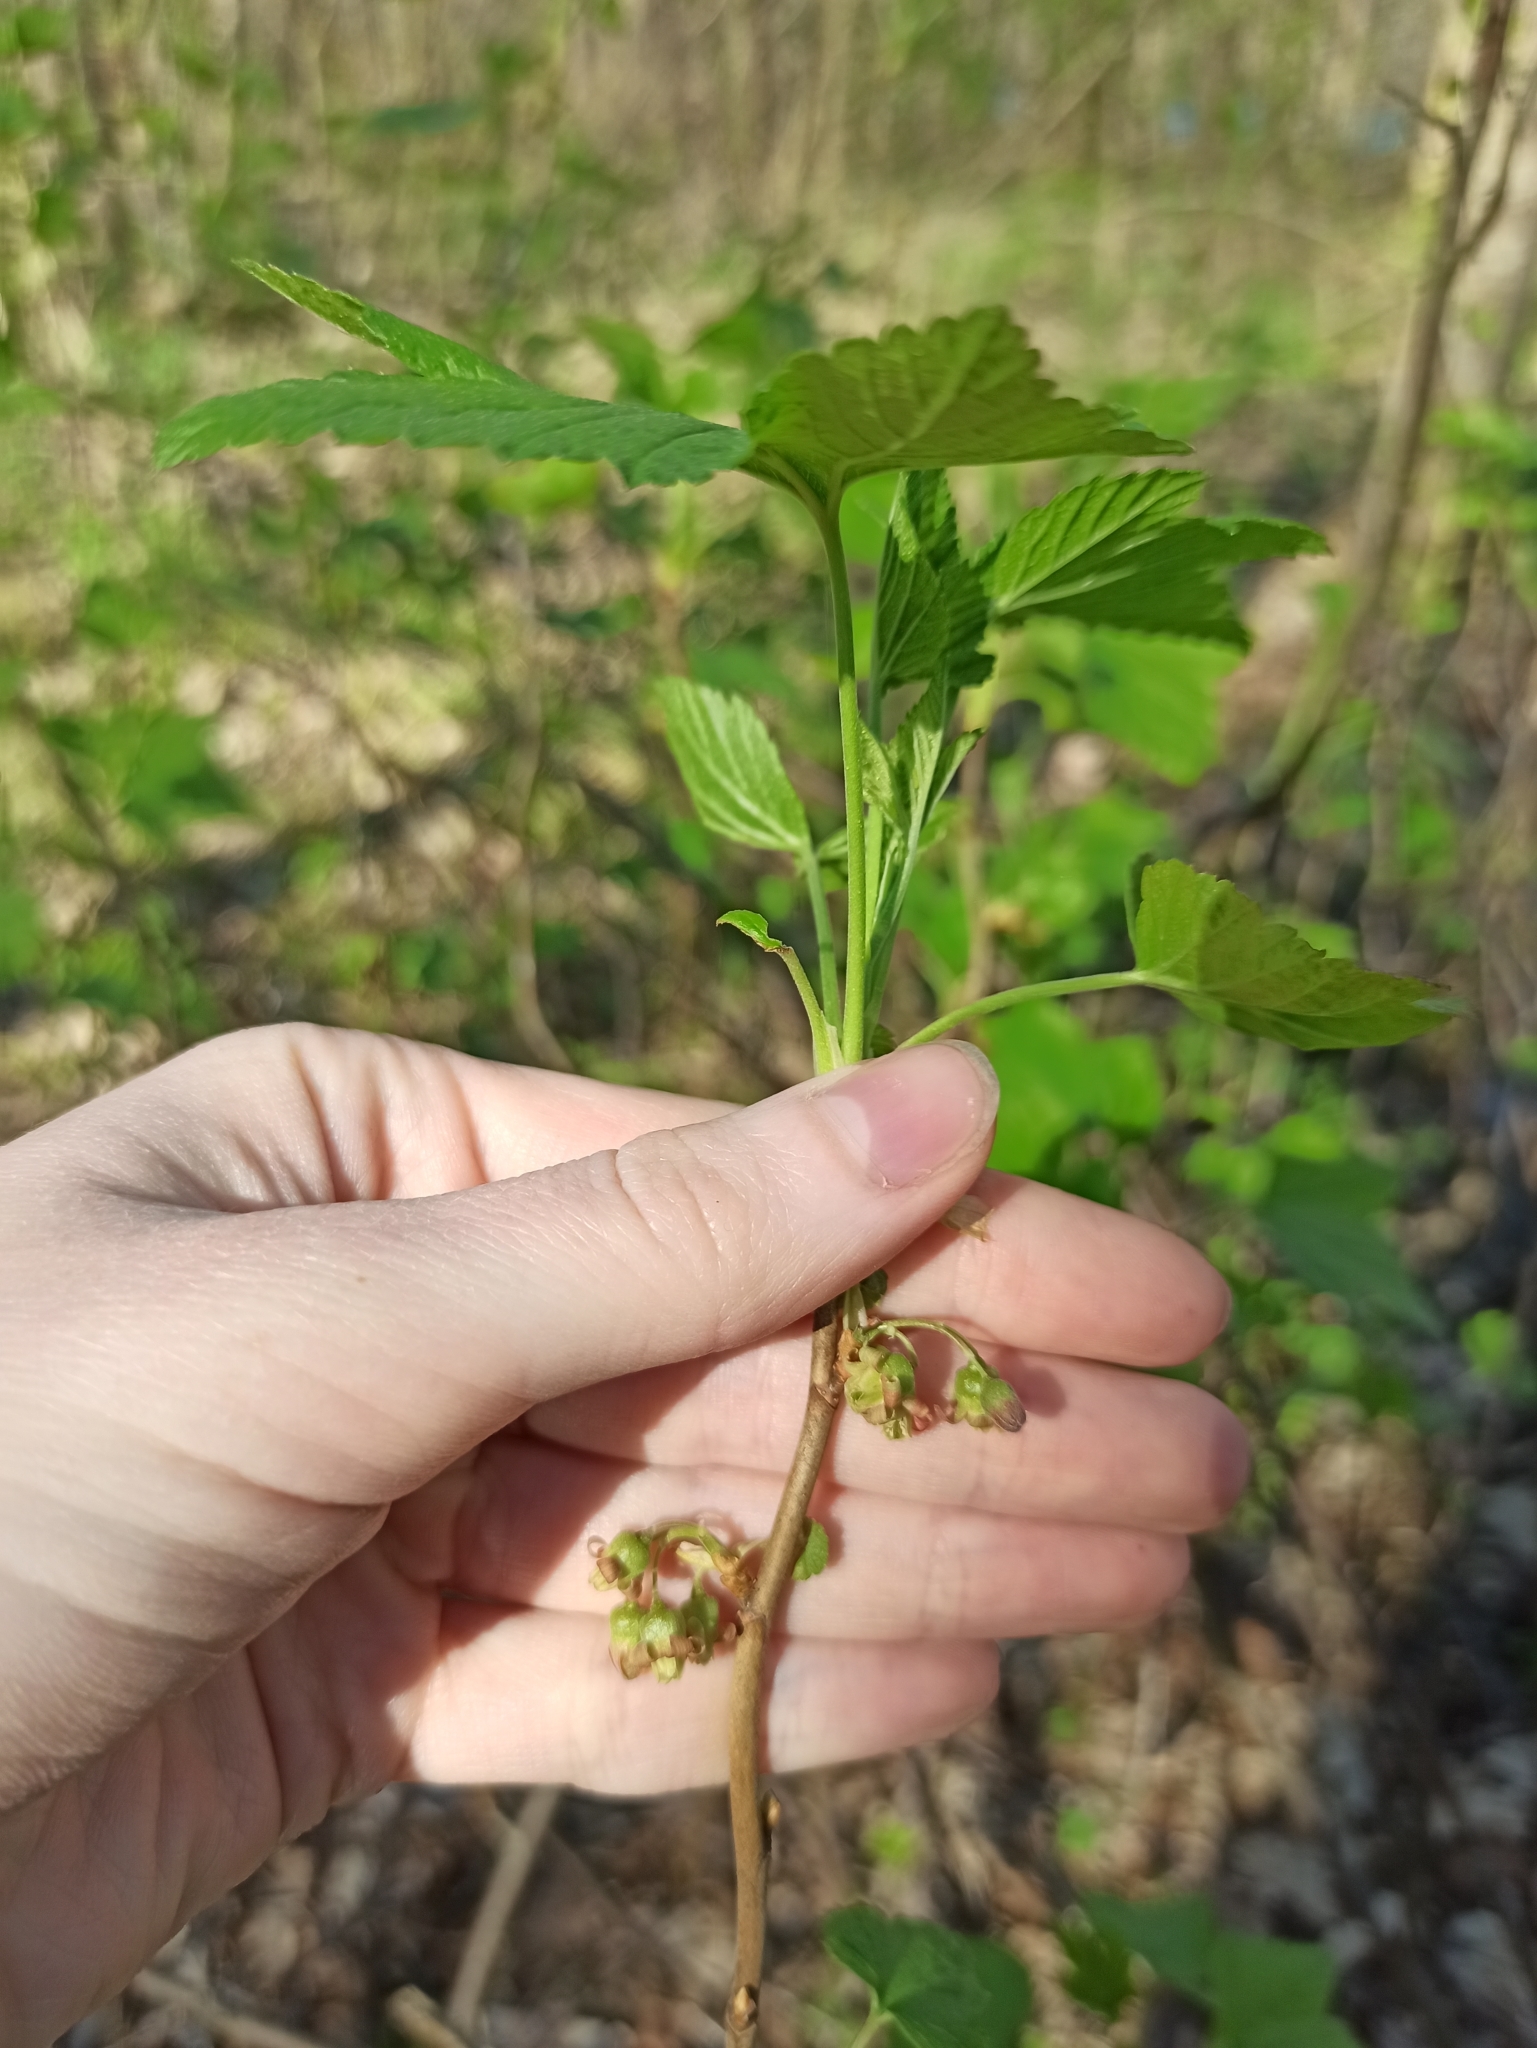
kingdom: Plantae
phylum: Tracheophyta
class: Magnoliopsida
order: Saxifragales
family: Grossulariaceae
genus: Ribes
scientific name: Ribes nigrum
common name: Black currant
